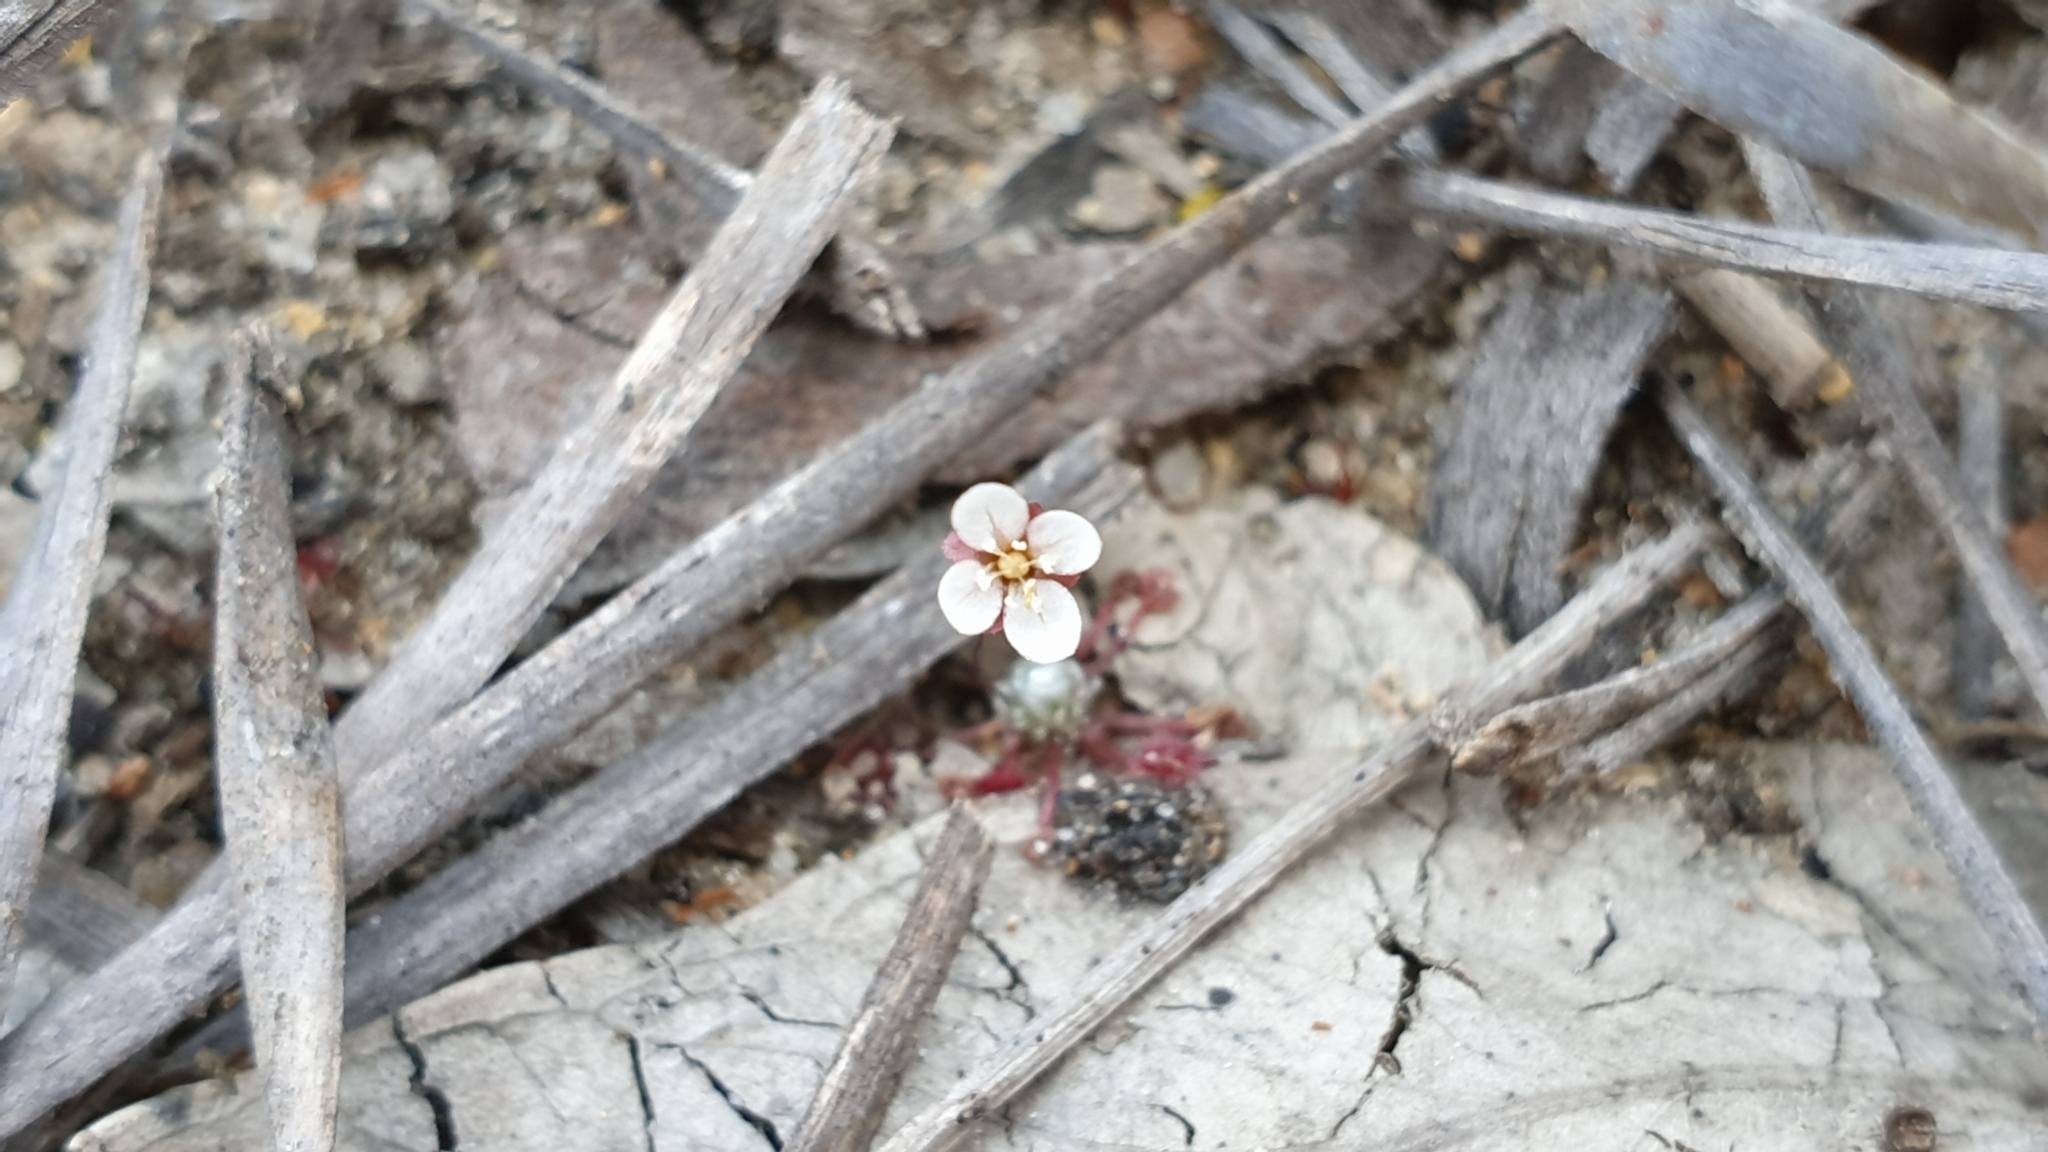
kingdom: Plantae
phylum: Tracheophyta
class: Magnoliopsida
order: Caryophyllales
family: Droseraceae
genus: Drosera
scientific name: Drosera pygmaea
